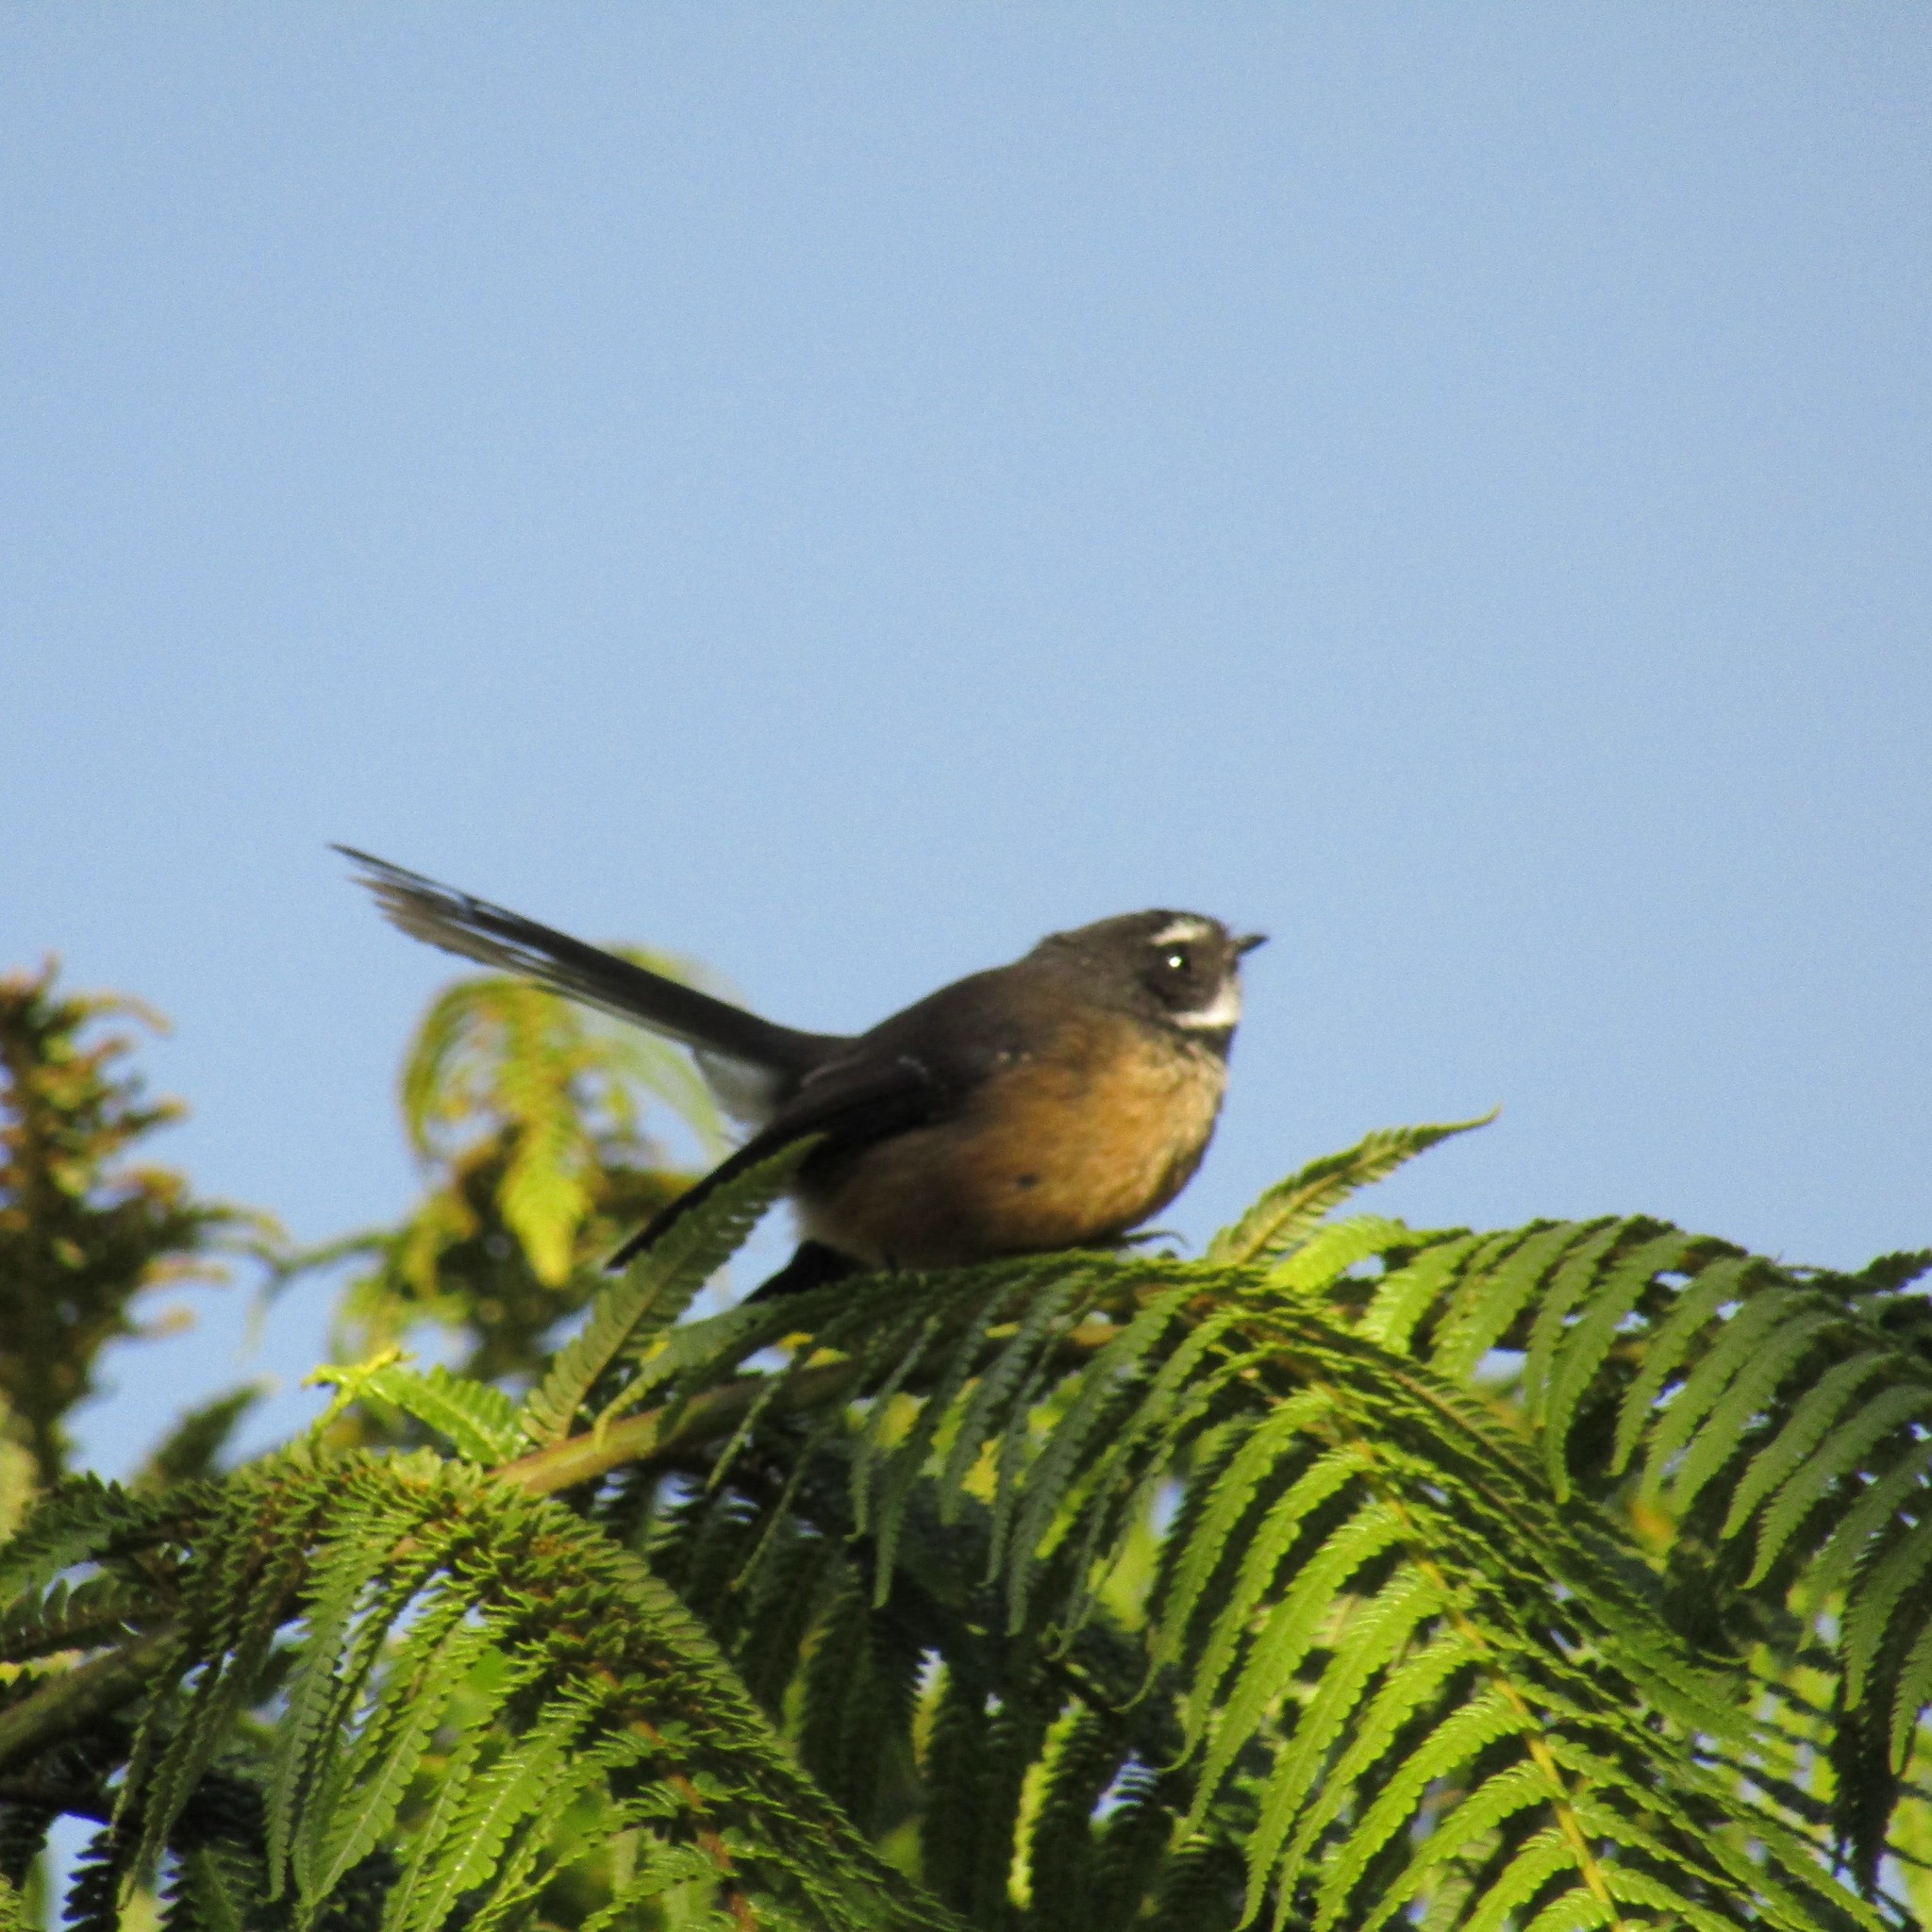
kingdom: Animalia
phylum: Chordata
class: Aves
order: Passeriformes
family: Rhipiduridae
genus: Rhipidura
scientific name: Rhipidura fuliginosa
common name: New zealand fantail
